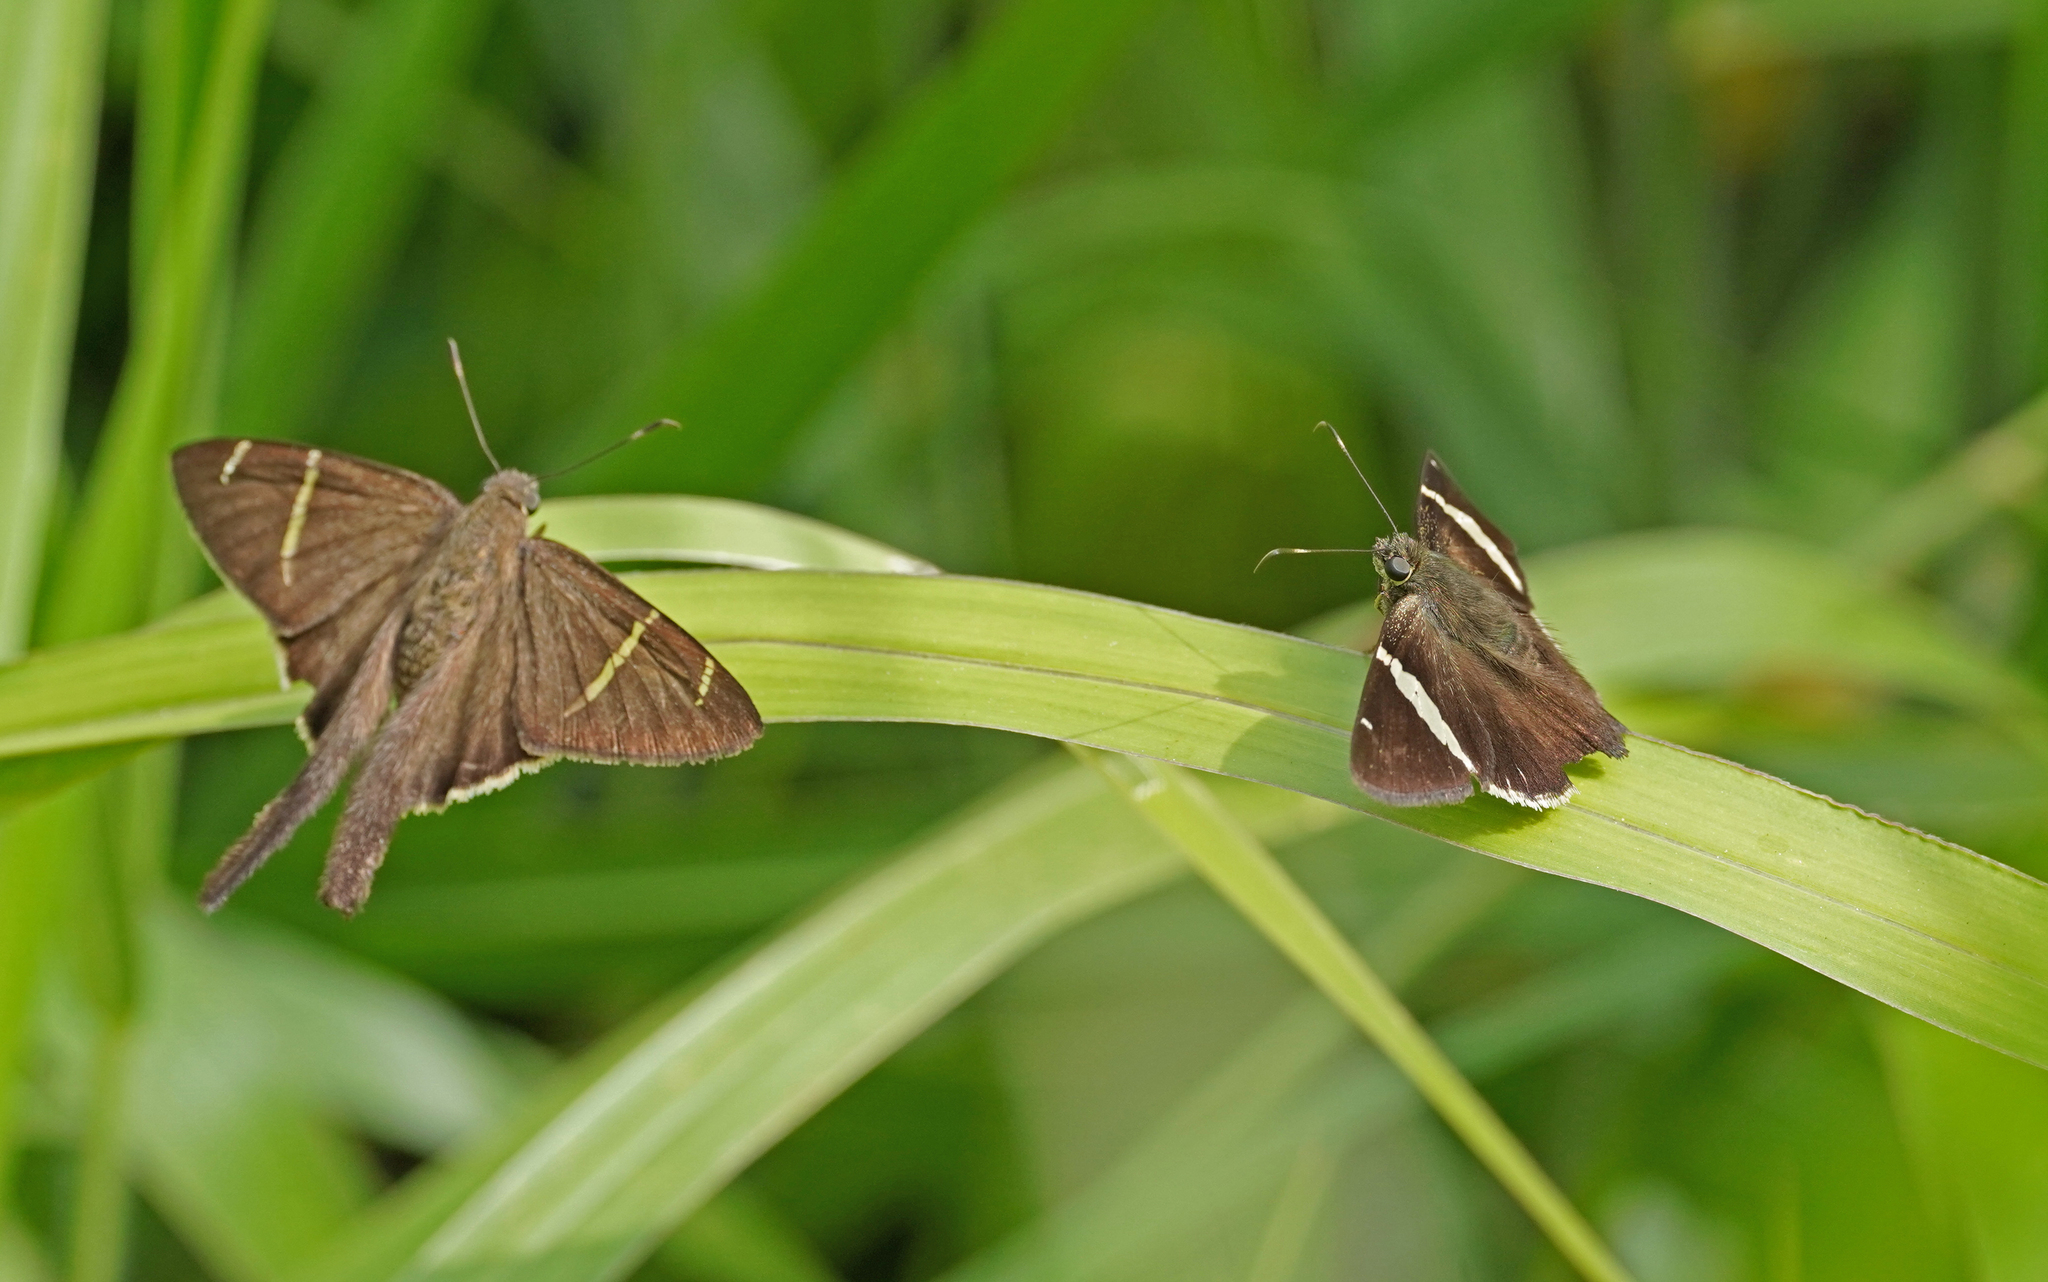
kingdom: Animalia
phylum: Arthropoda
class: Insecta
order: Lepidoptera
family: Hesperiidae
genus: Urbanus
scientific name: Urbanus tanna
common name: Tanna longtail
